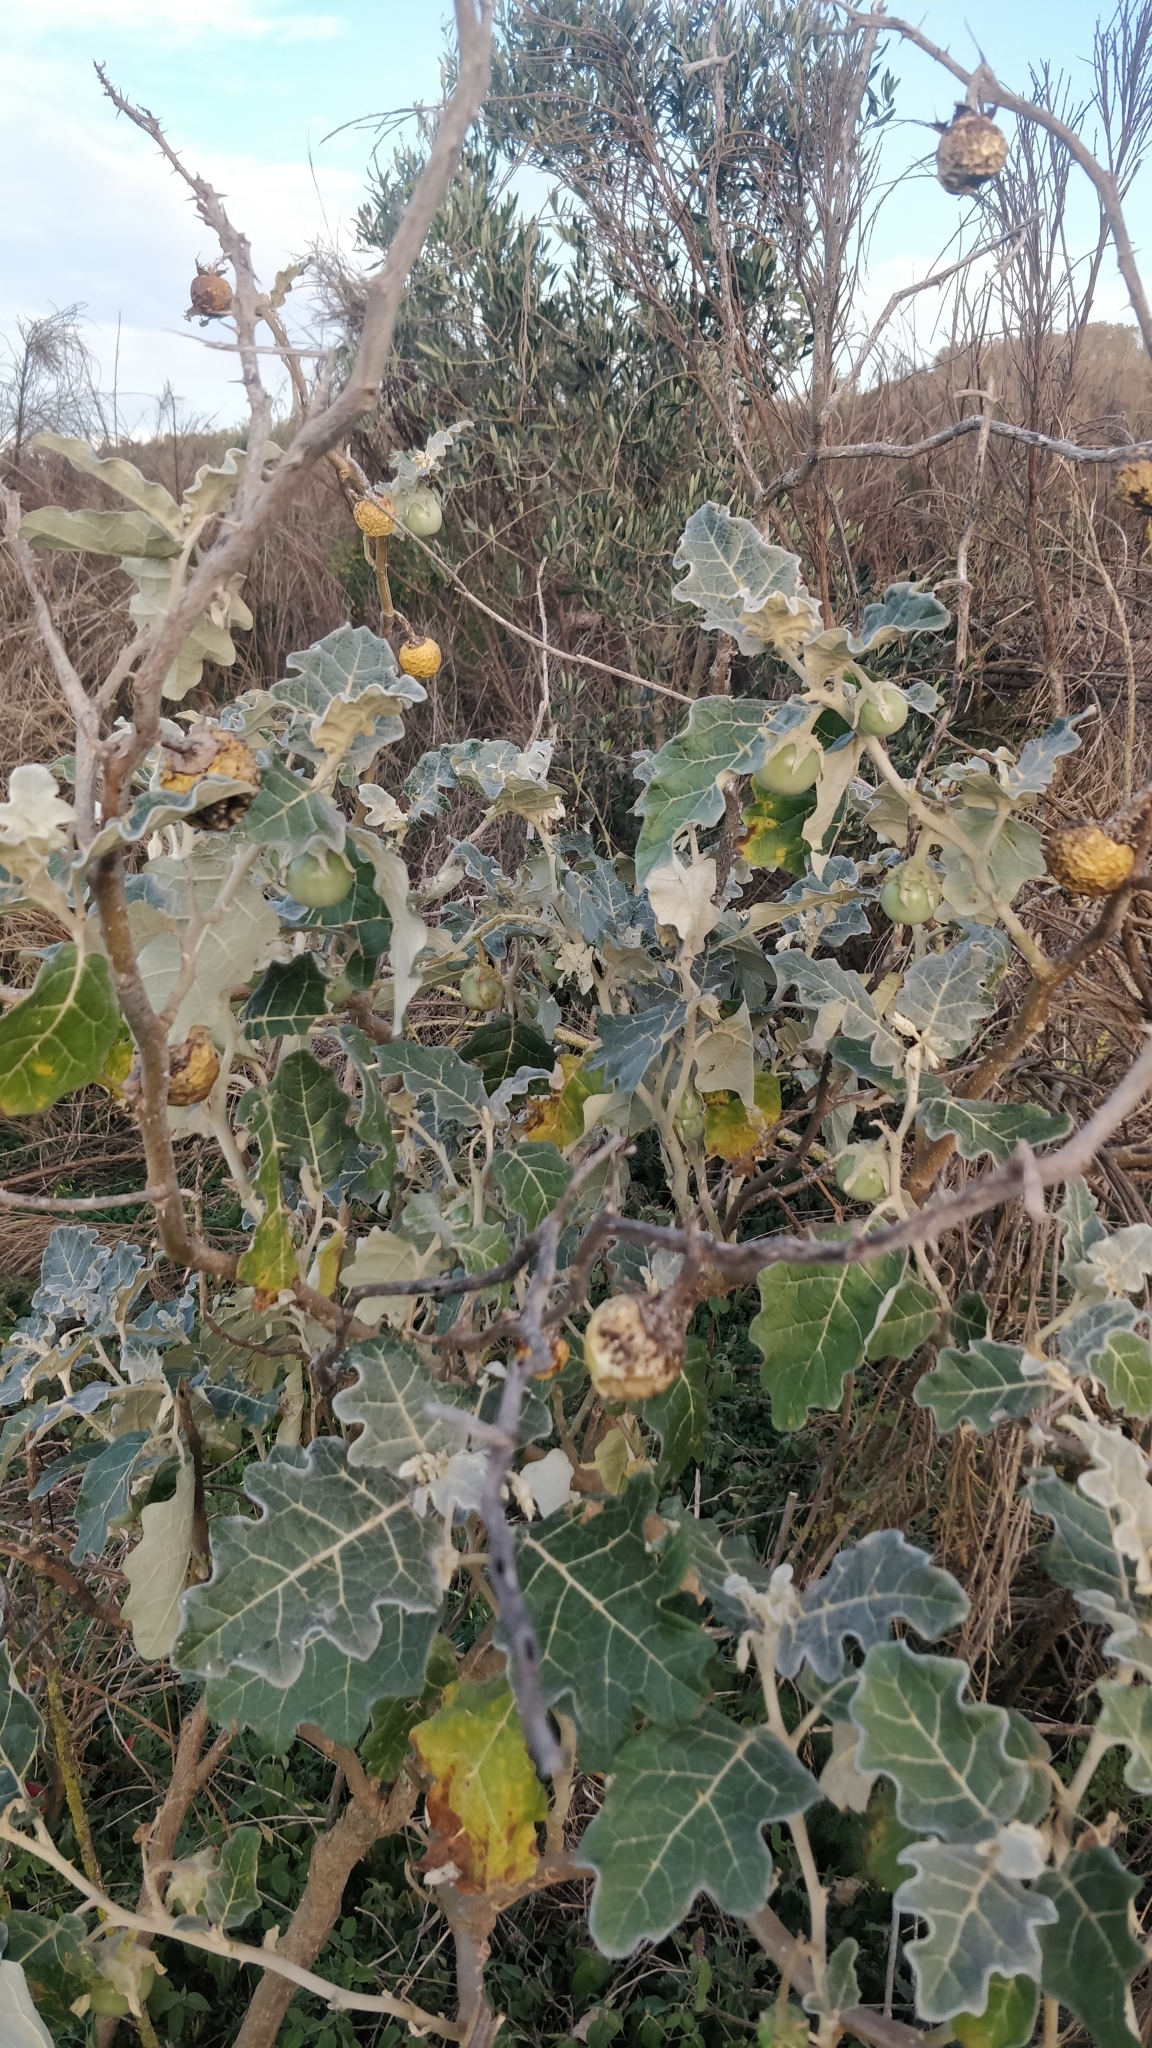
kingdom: Plantae
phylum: Tracheophyta
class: Magnoliopsida
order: Solanales
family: Solanaceae
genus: Solanum
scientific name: Solanum marginatum
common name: Purple african nightshade
